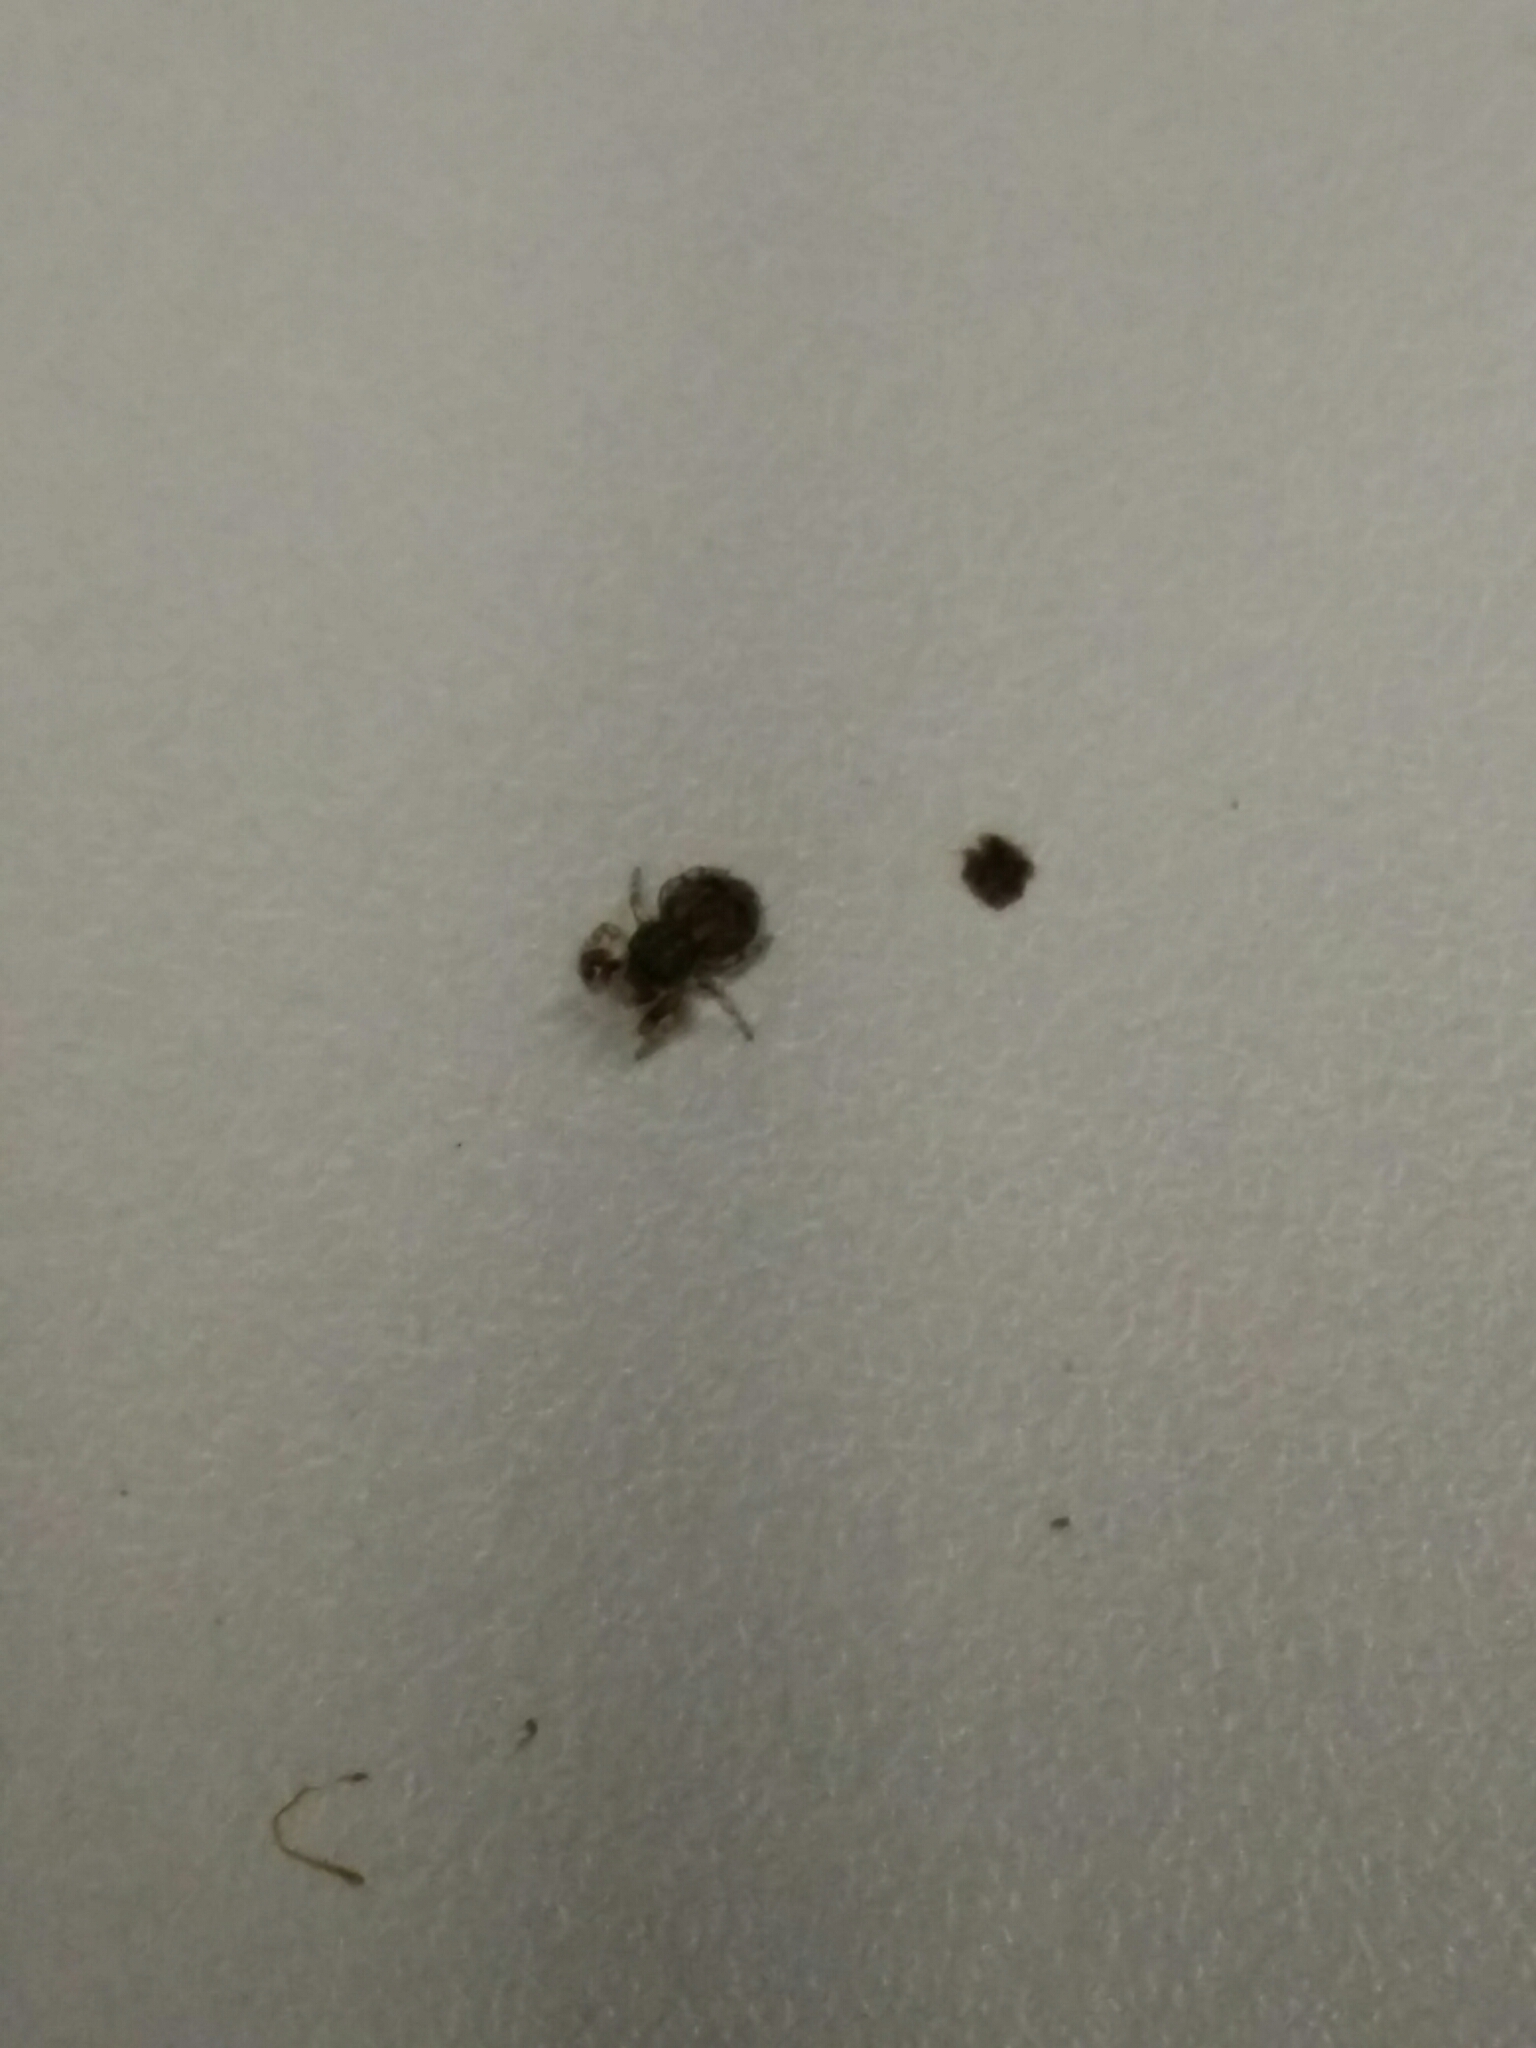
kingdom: Animalia
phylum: Arthropoda
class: Arachnida
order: Araneae
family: Salticidae
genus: Ballus
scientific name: Ballus chalybeius
